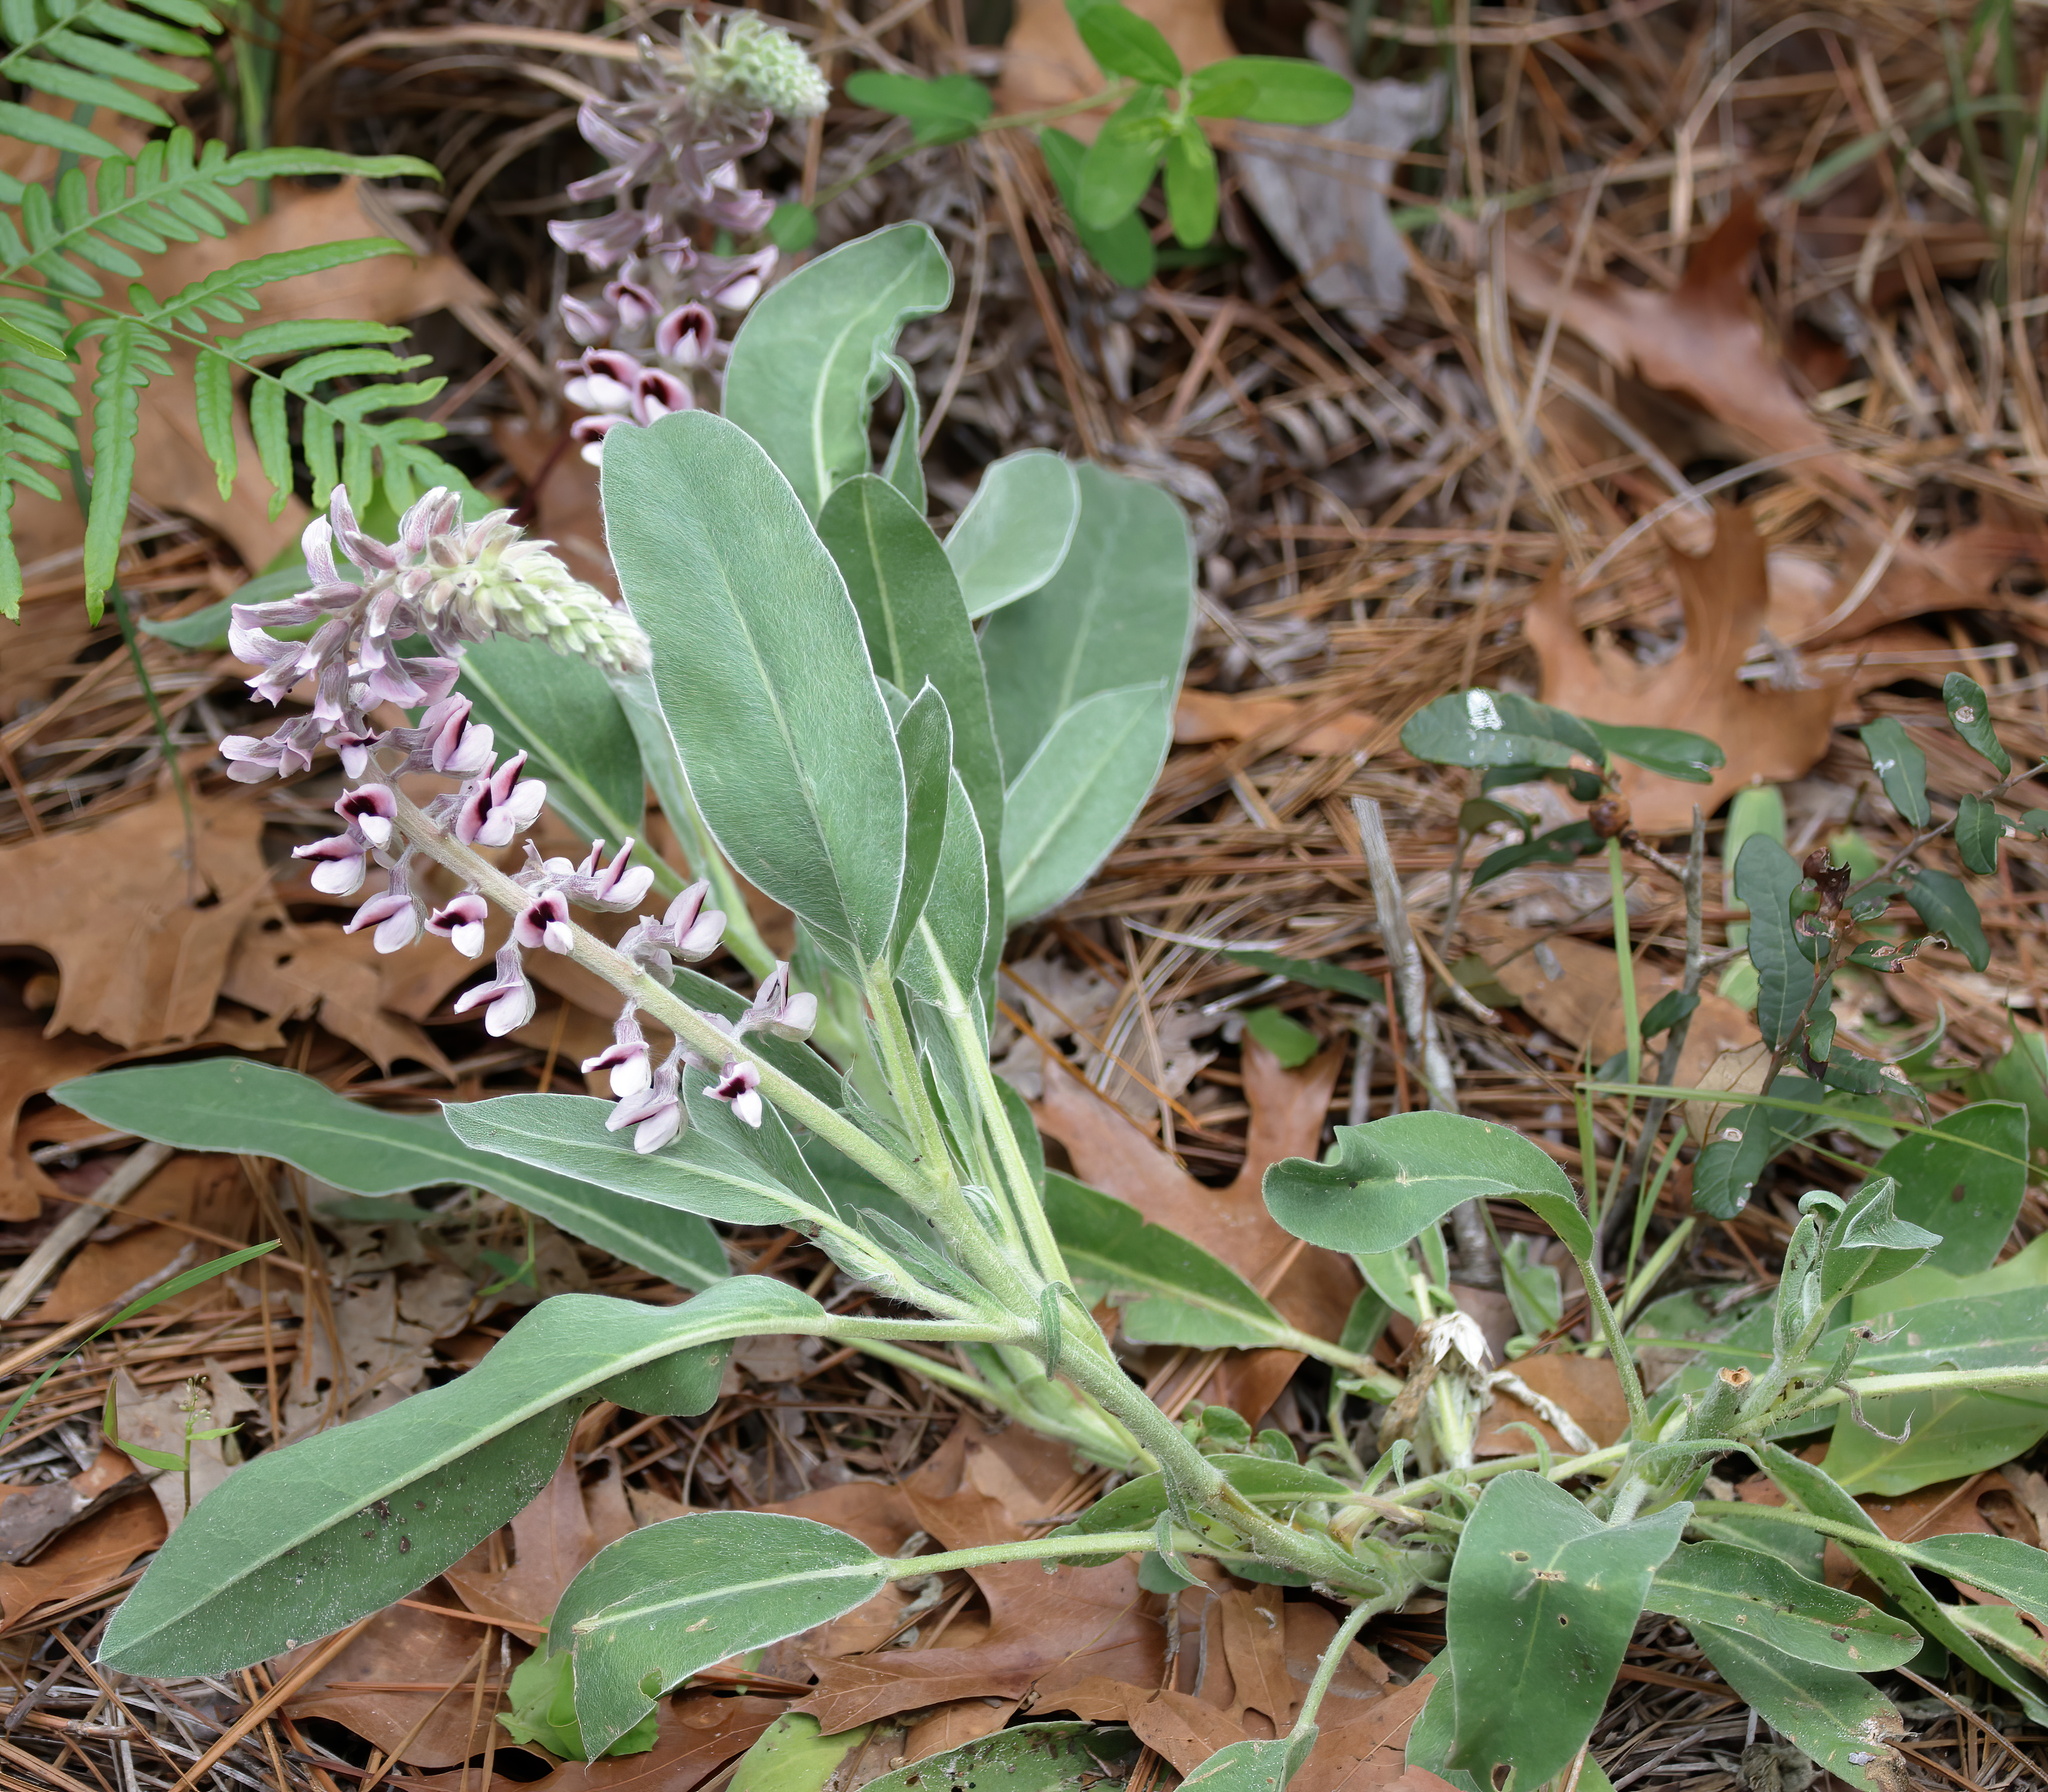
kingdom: Plantae
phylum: Tracheophyta
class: Magnoliopsida
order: Fabales
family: Fabaceae
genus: Lupinus
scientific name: Lupinus villosus
